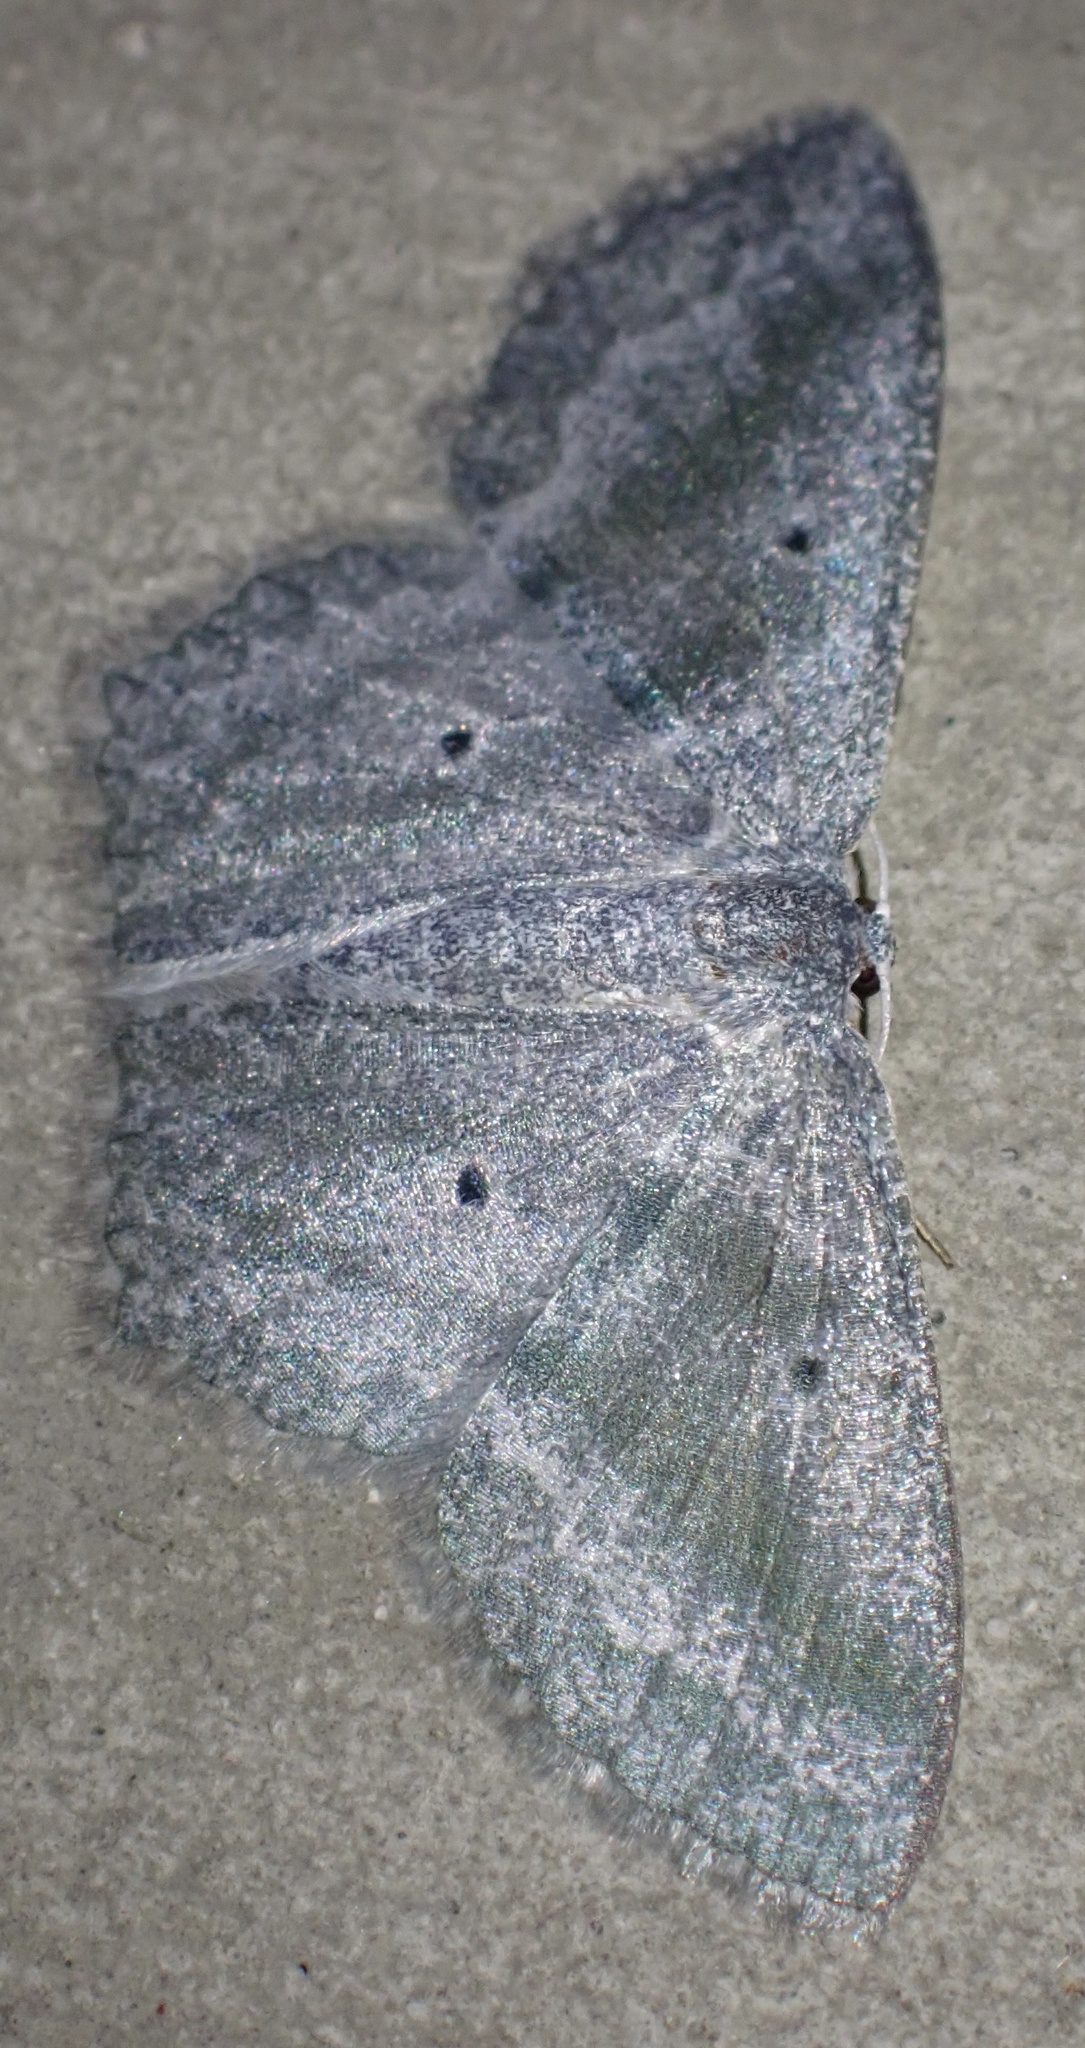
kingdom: Animalia
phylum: Arthropoda
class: Insecta
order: Lepidoptera
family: Geometridae
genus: Maxates
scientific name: Maxates spumata
